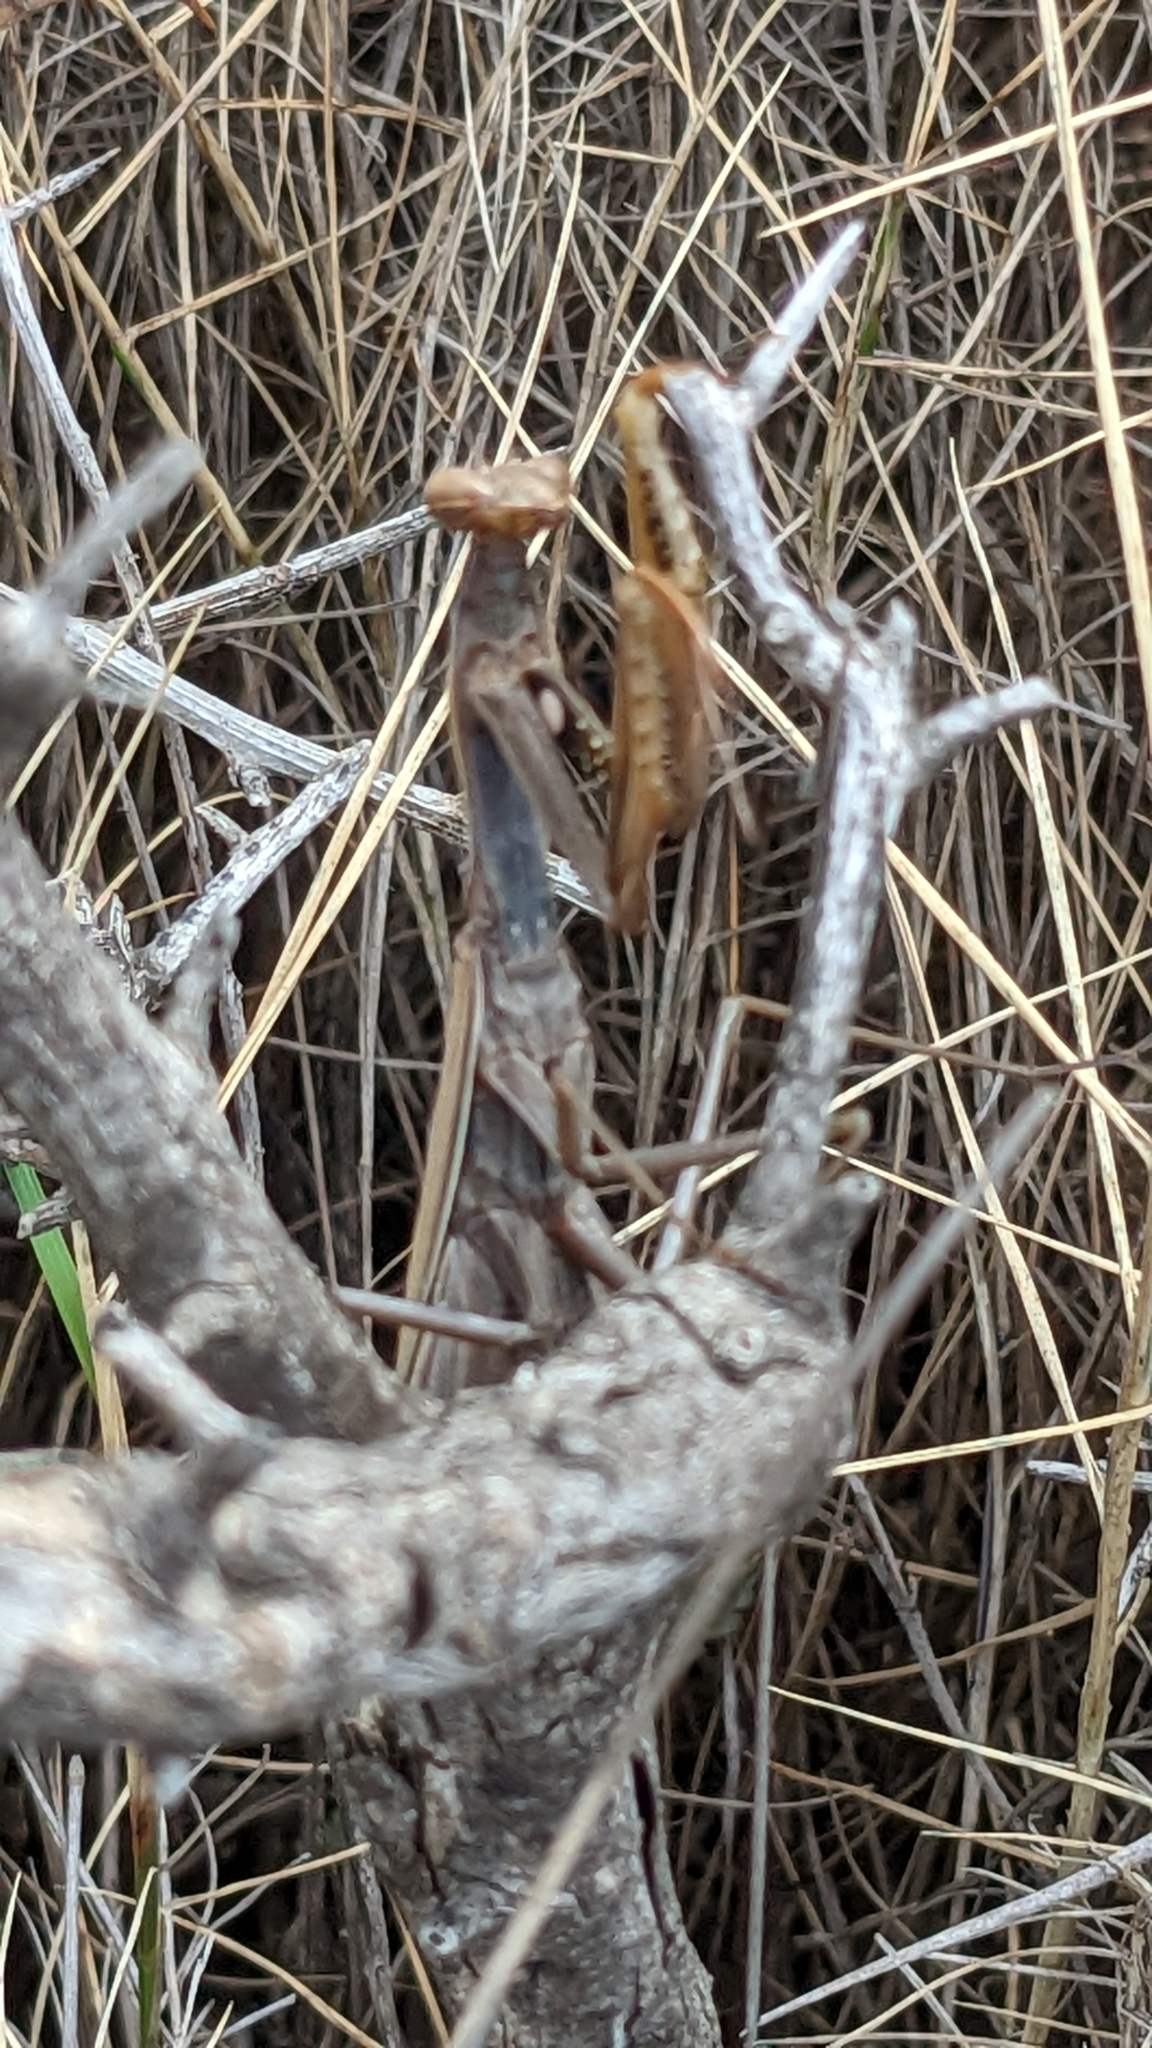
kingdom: Animalia
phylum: Arthropoda
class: Insecta
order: Mantodea
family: Mantidae
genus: Mantis
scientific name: Mantis religiosa
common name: Praying mantis
